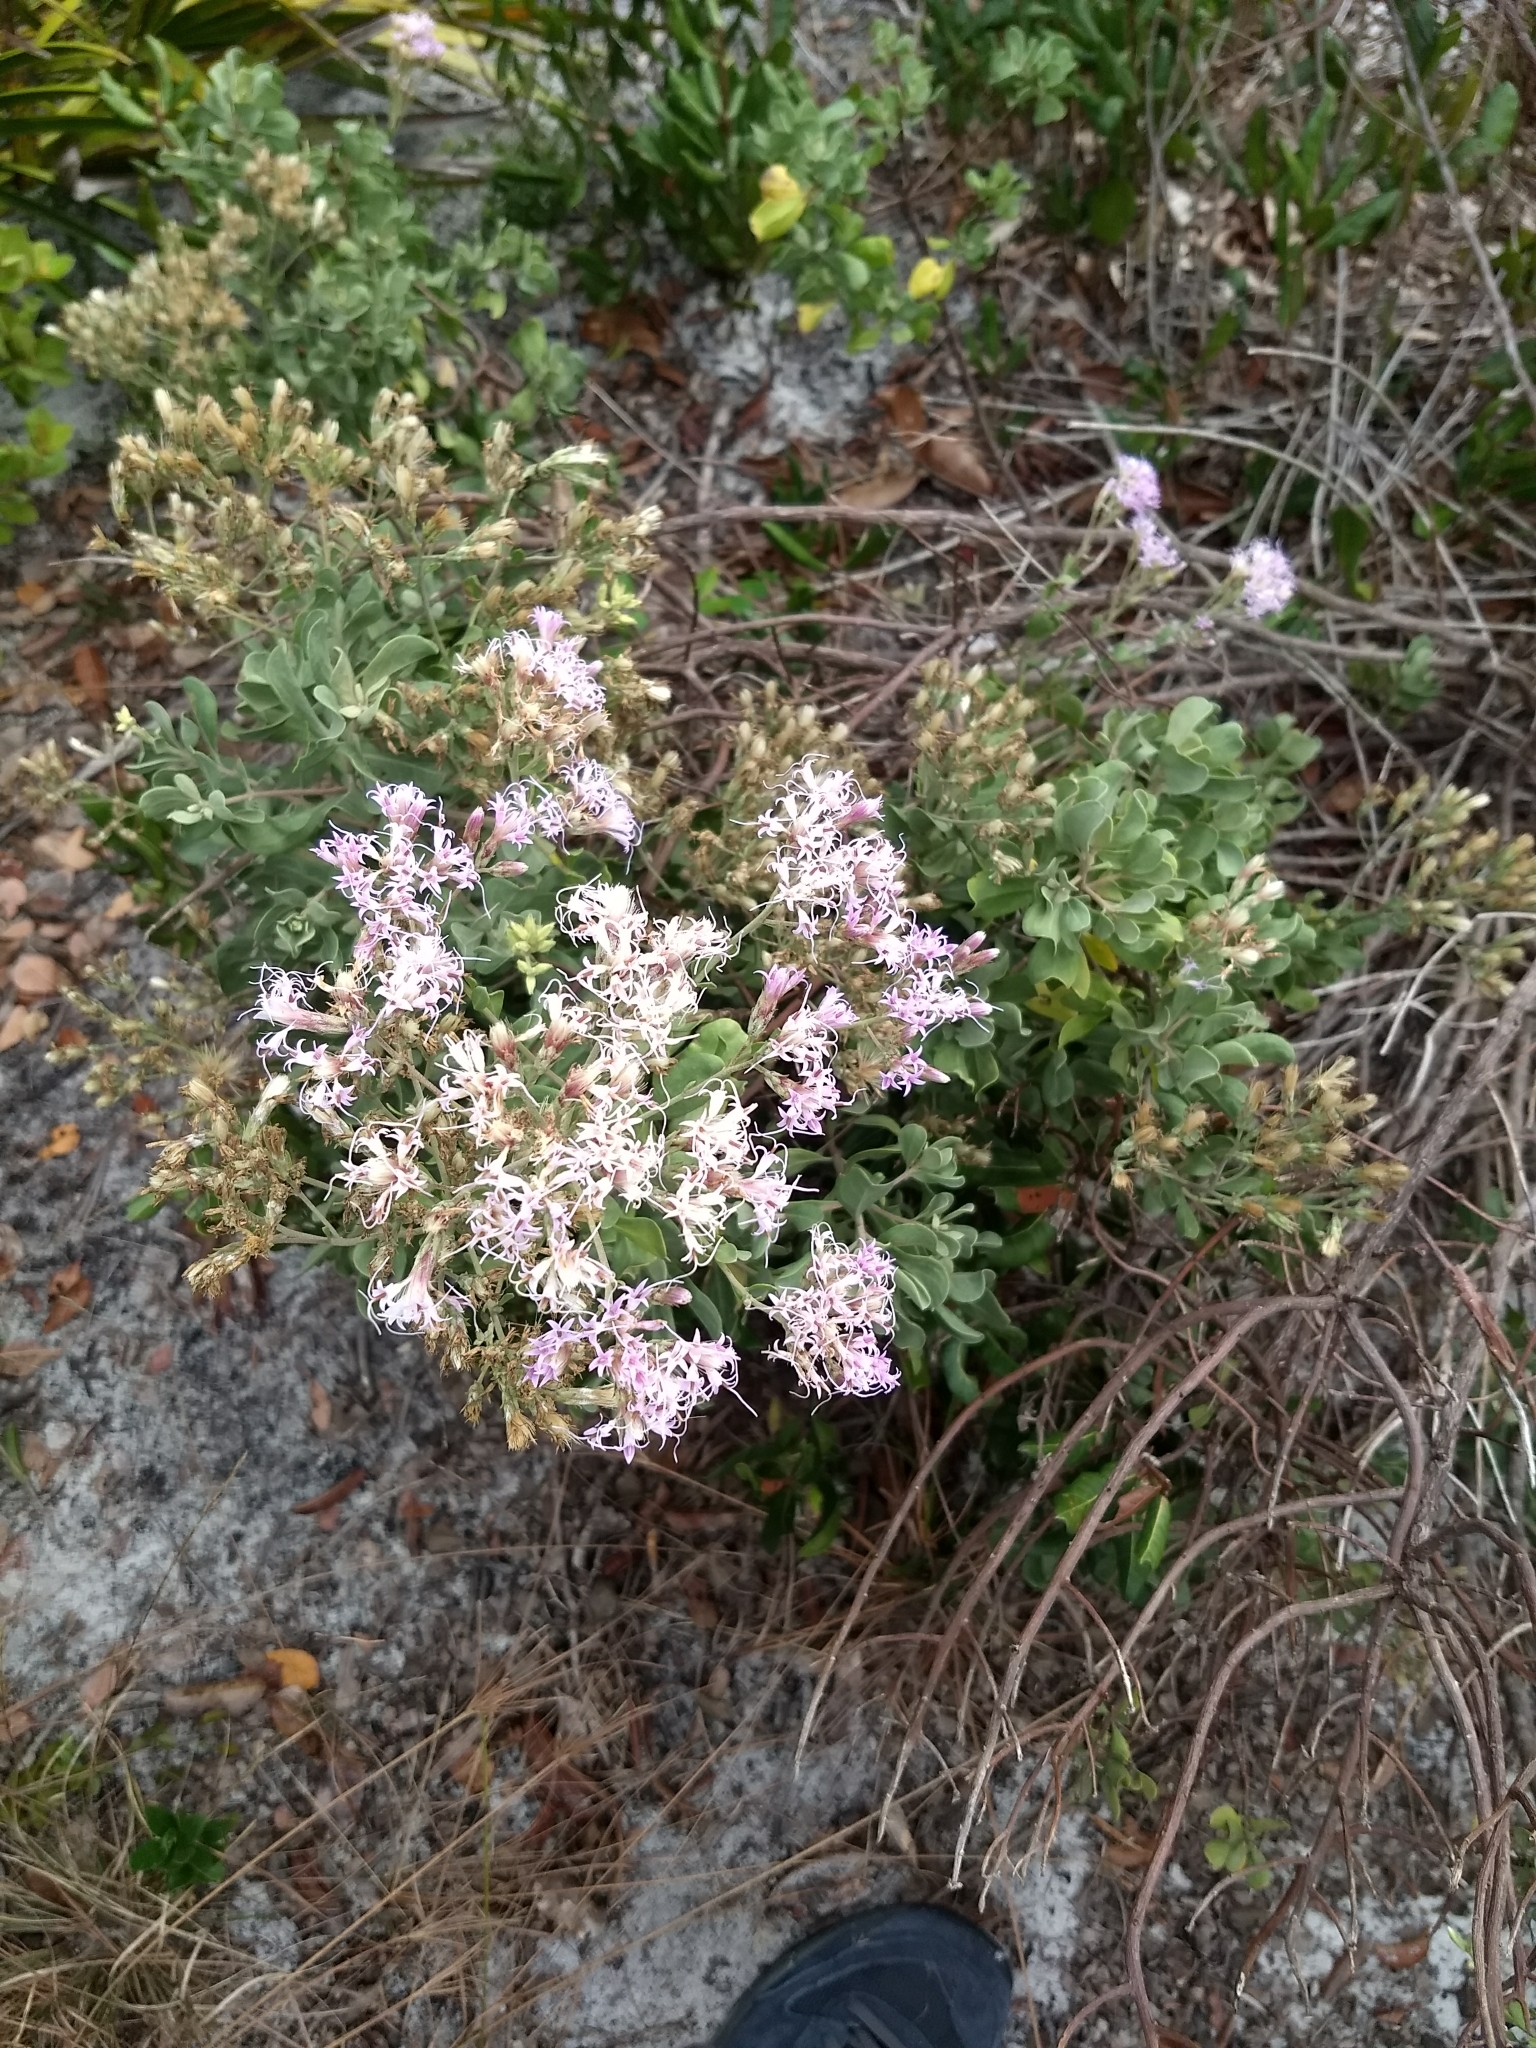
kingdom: Plantae
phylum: Tracheophyta
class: Magnoliopsida
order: Asterales
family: Asteraceae
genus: Garberia
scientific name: Garberia heterophylla
